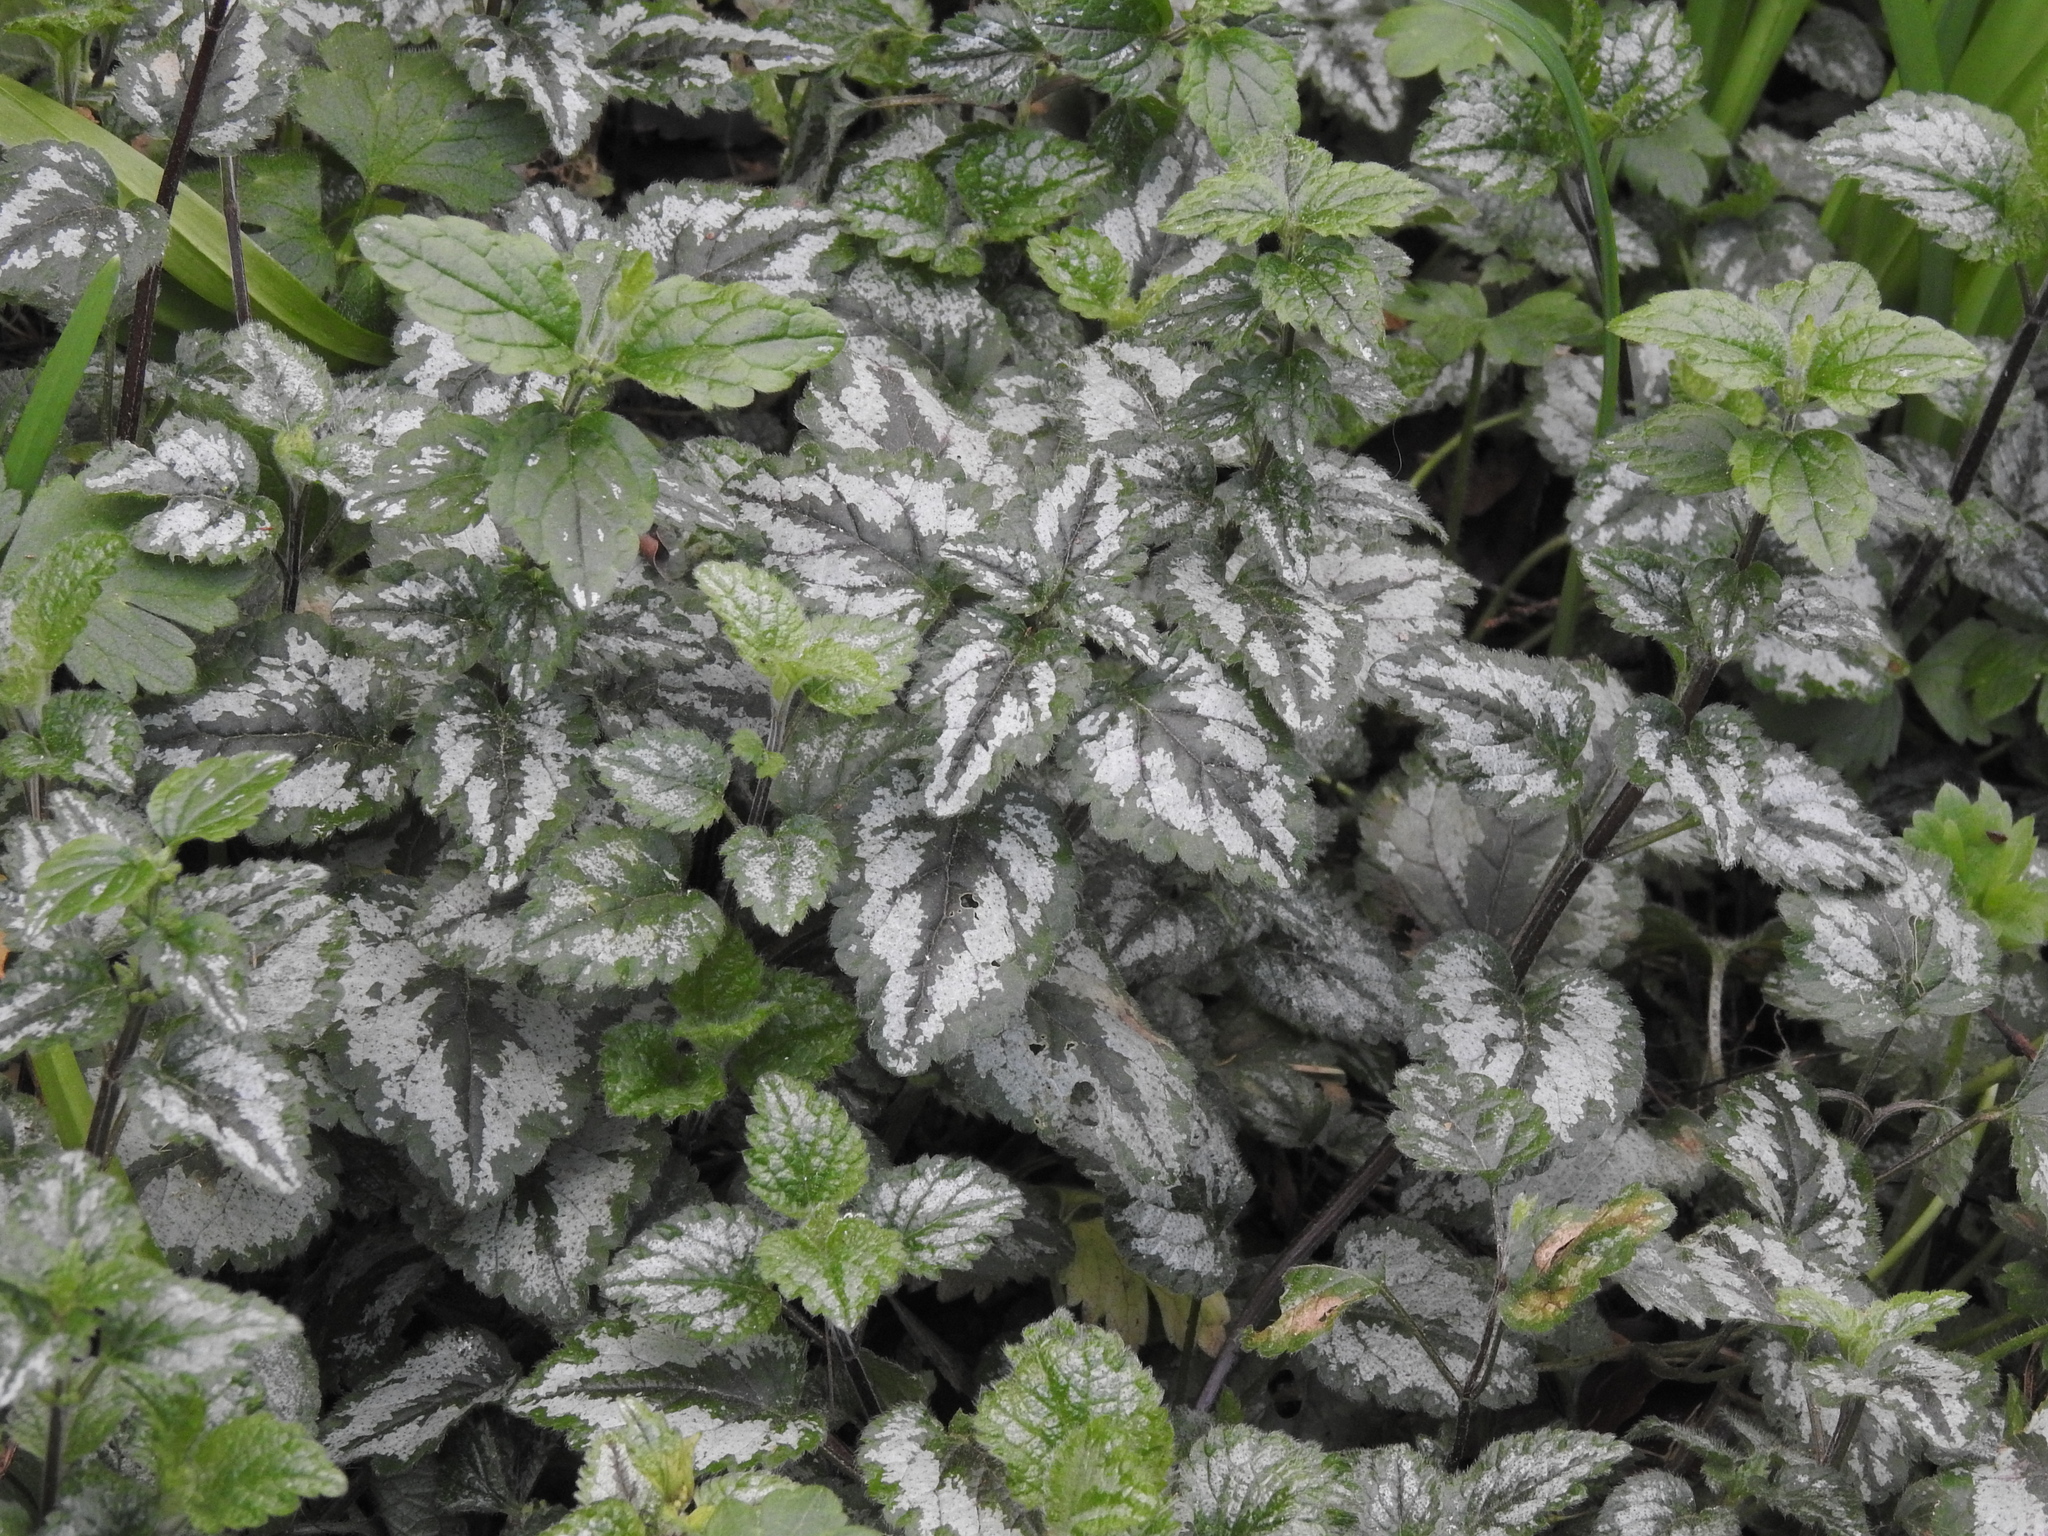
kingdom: Plantae
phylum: Tracheophyta
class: Magnoliopsida
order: Lamiales
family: Lamiaceae
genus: Lamium
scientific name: Lamium galeobdolon
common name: Yellow archangel
